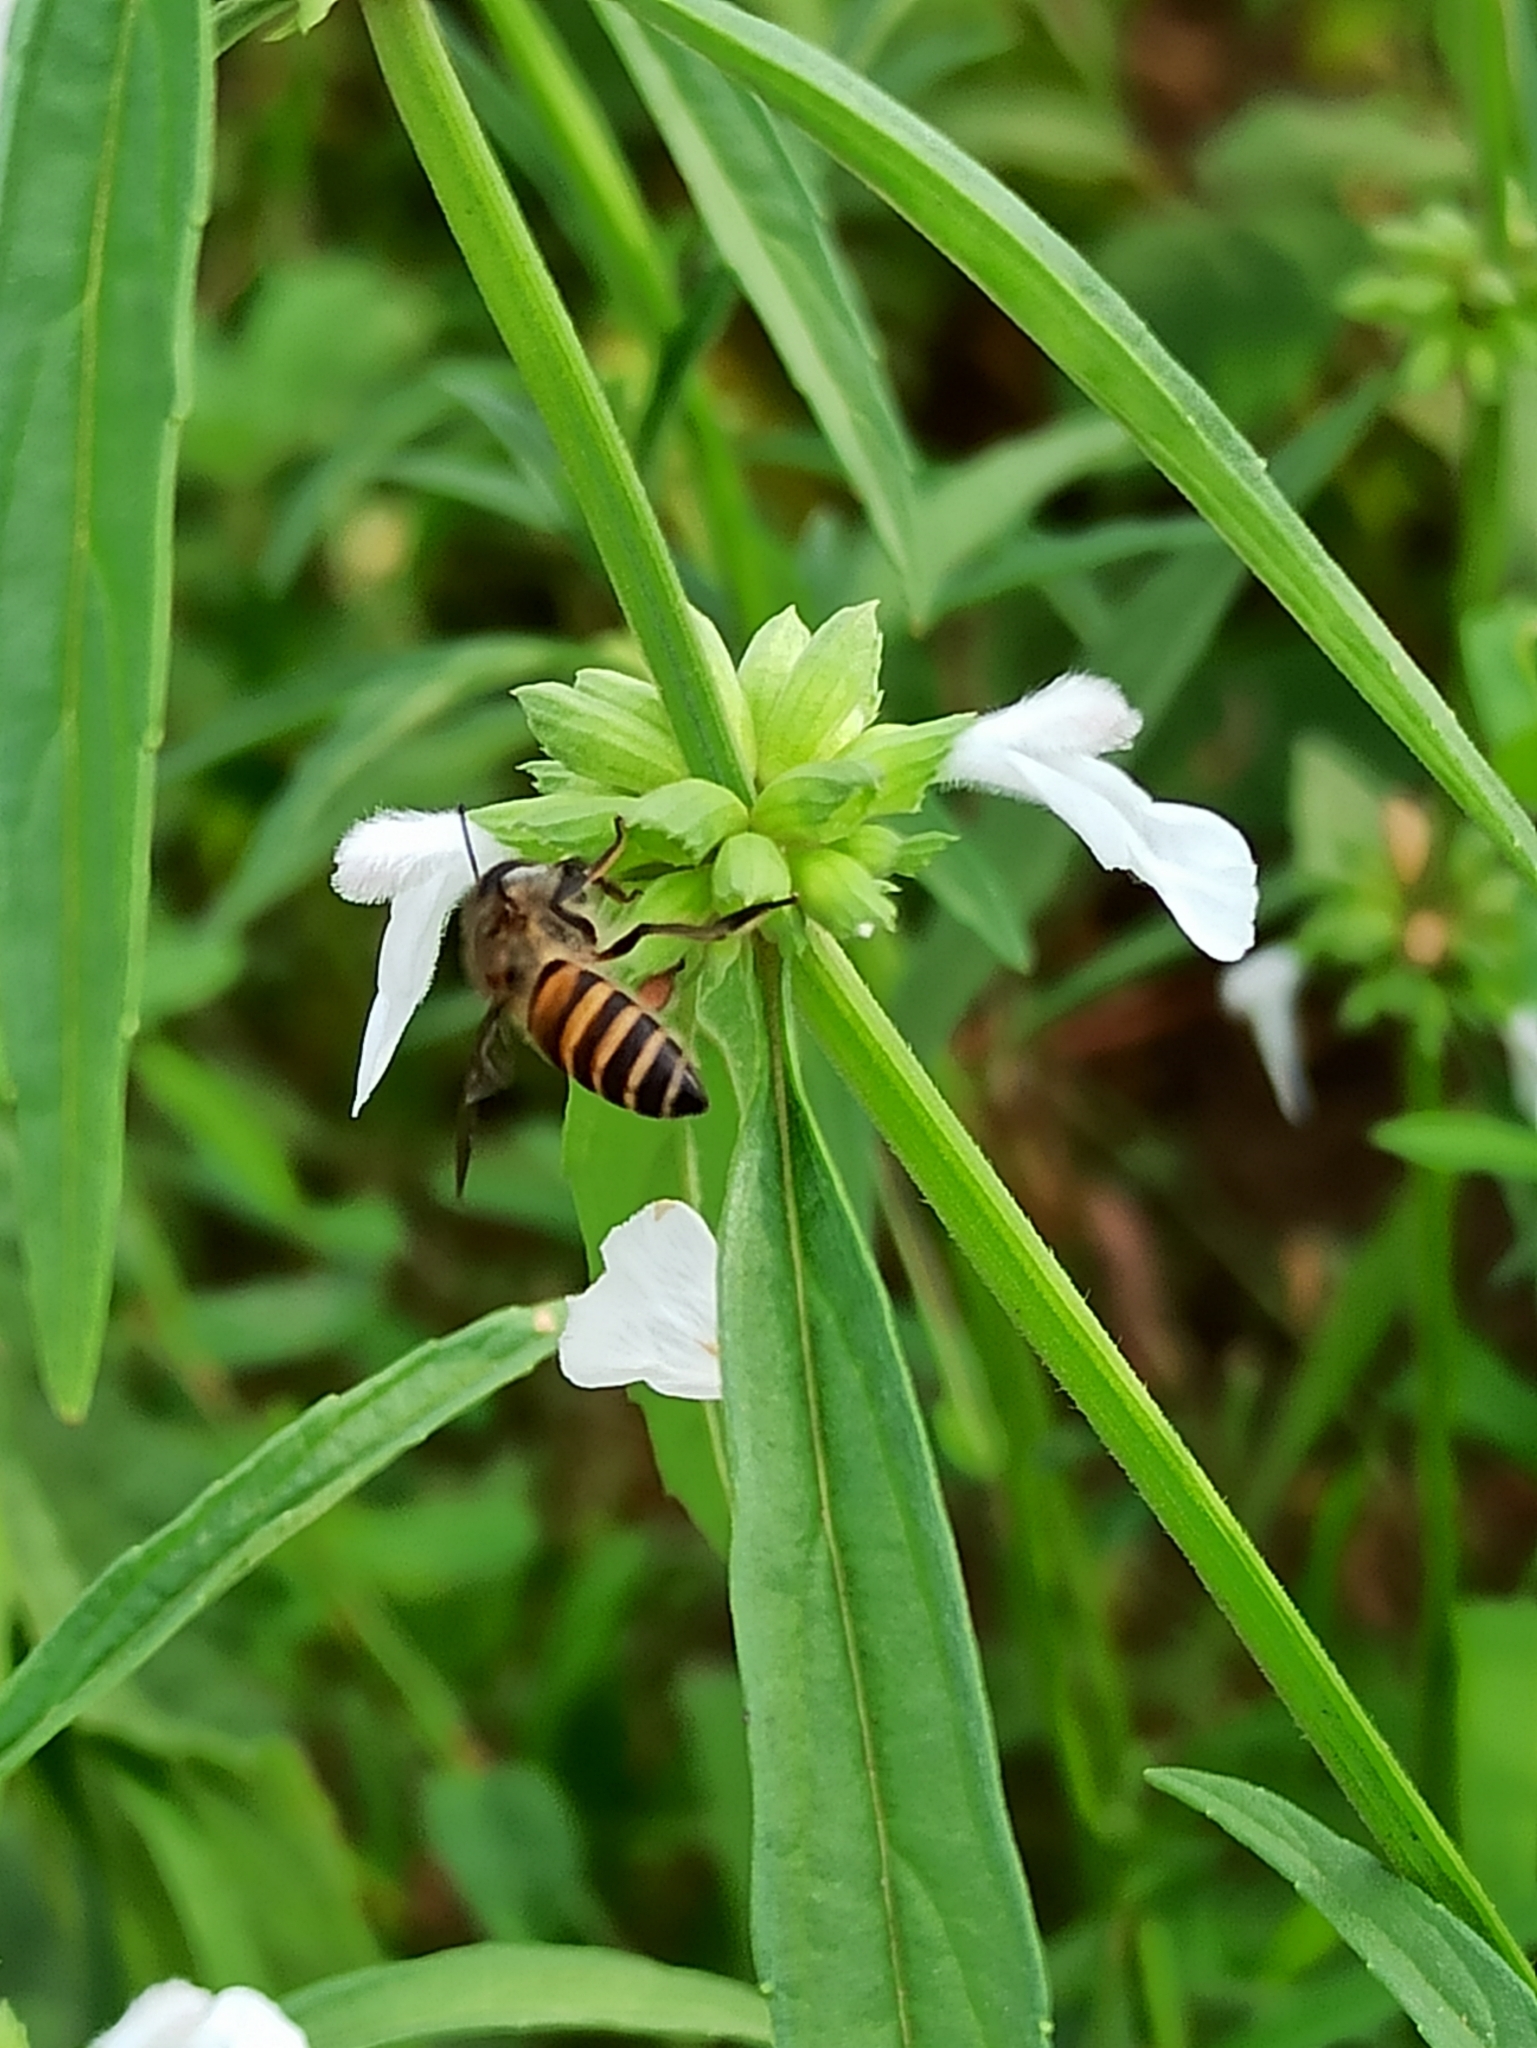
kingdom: Animalia
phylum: Arthropoda
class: Insecta
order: Hymenoptera
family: Apidae
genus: Apis
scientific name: Apis cerana
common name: Honey bee
